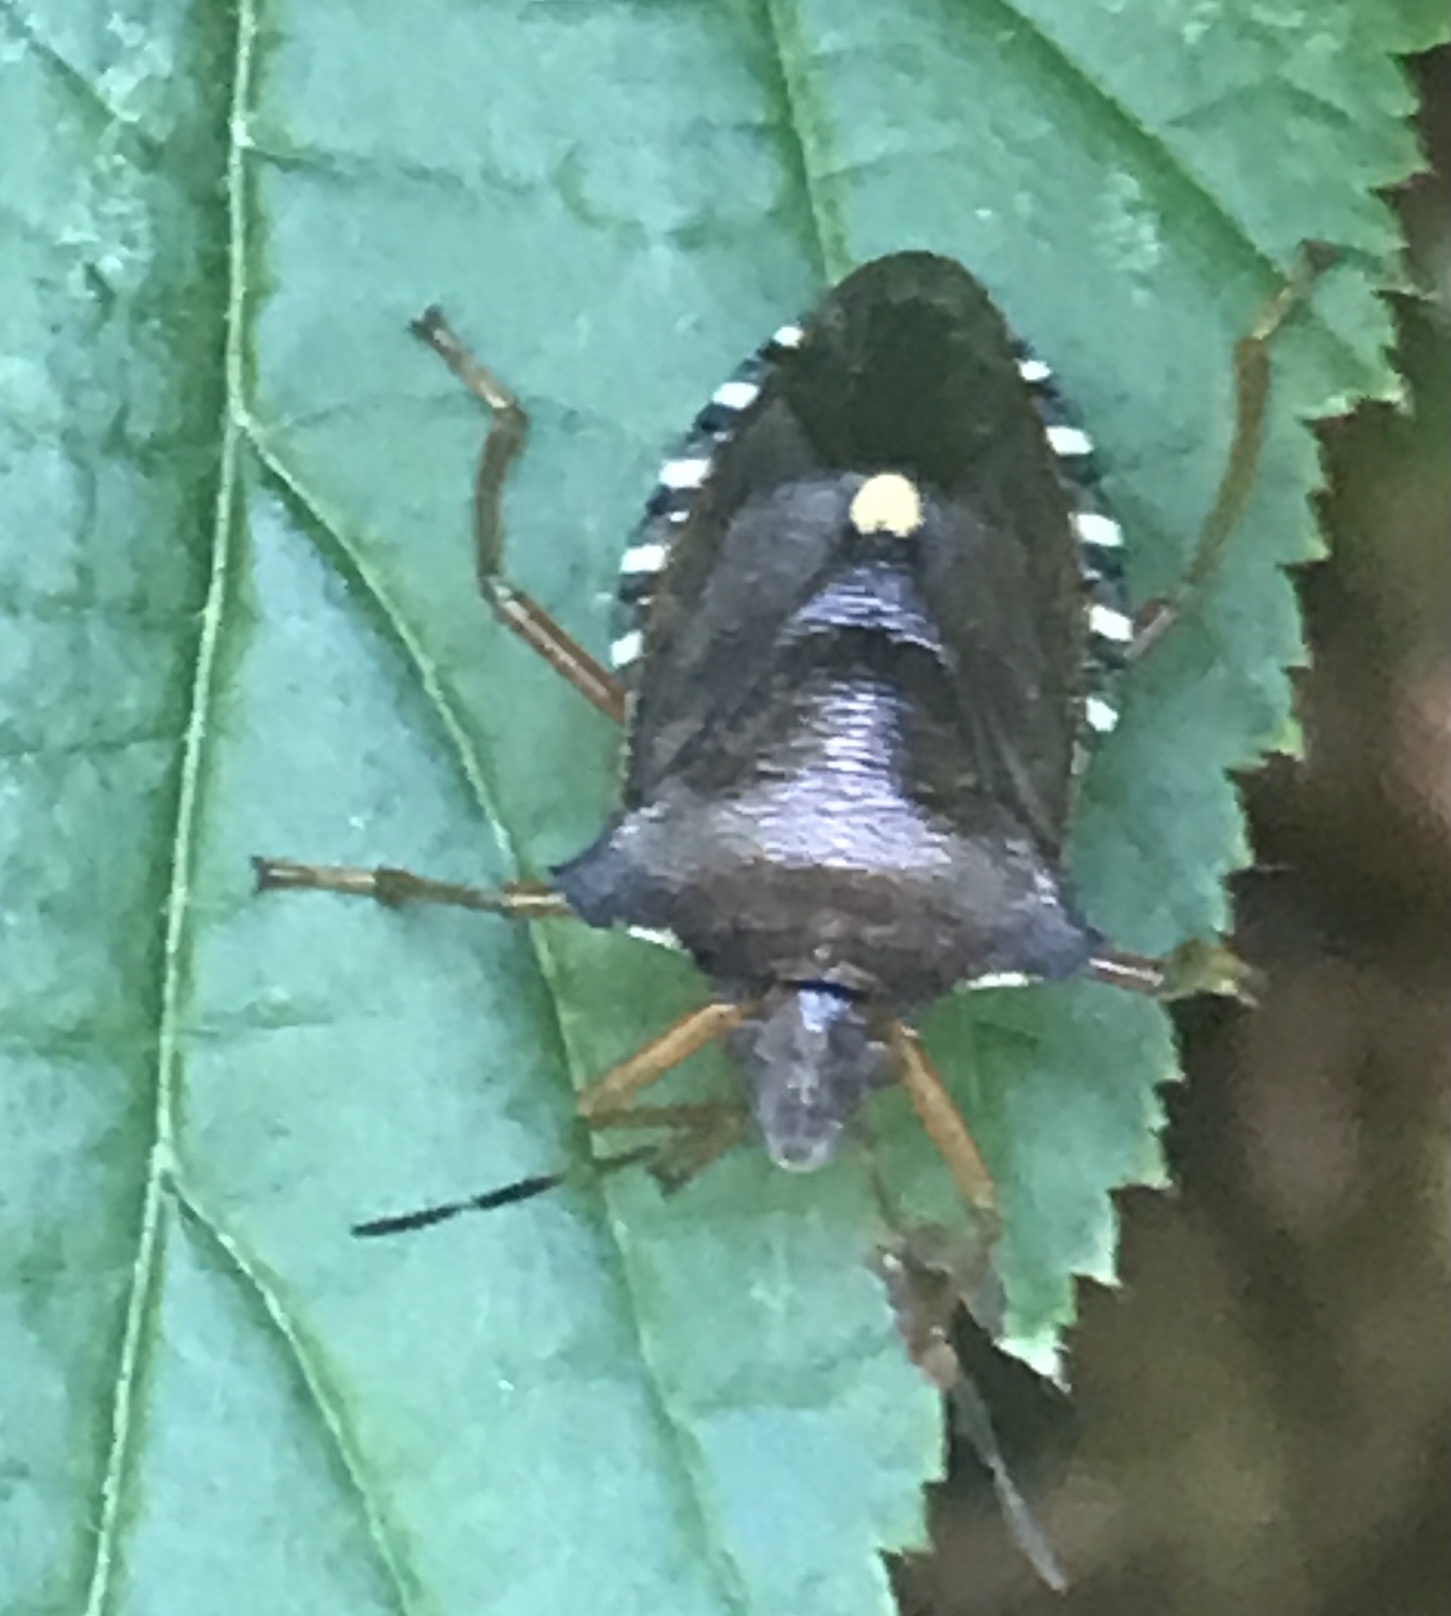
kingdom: Animalia
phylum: Arthropoda
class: Insecta
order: Hemiptera
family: Pentatomidae
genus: Pentatoma
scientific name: Pentatoma rufipes
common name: Forest bug
